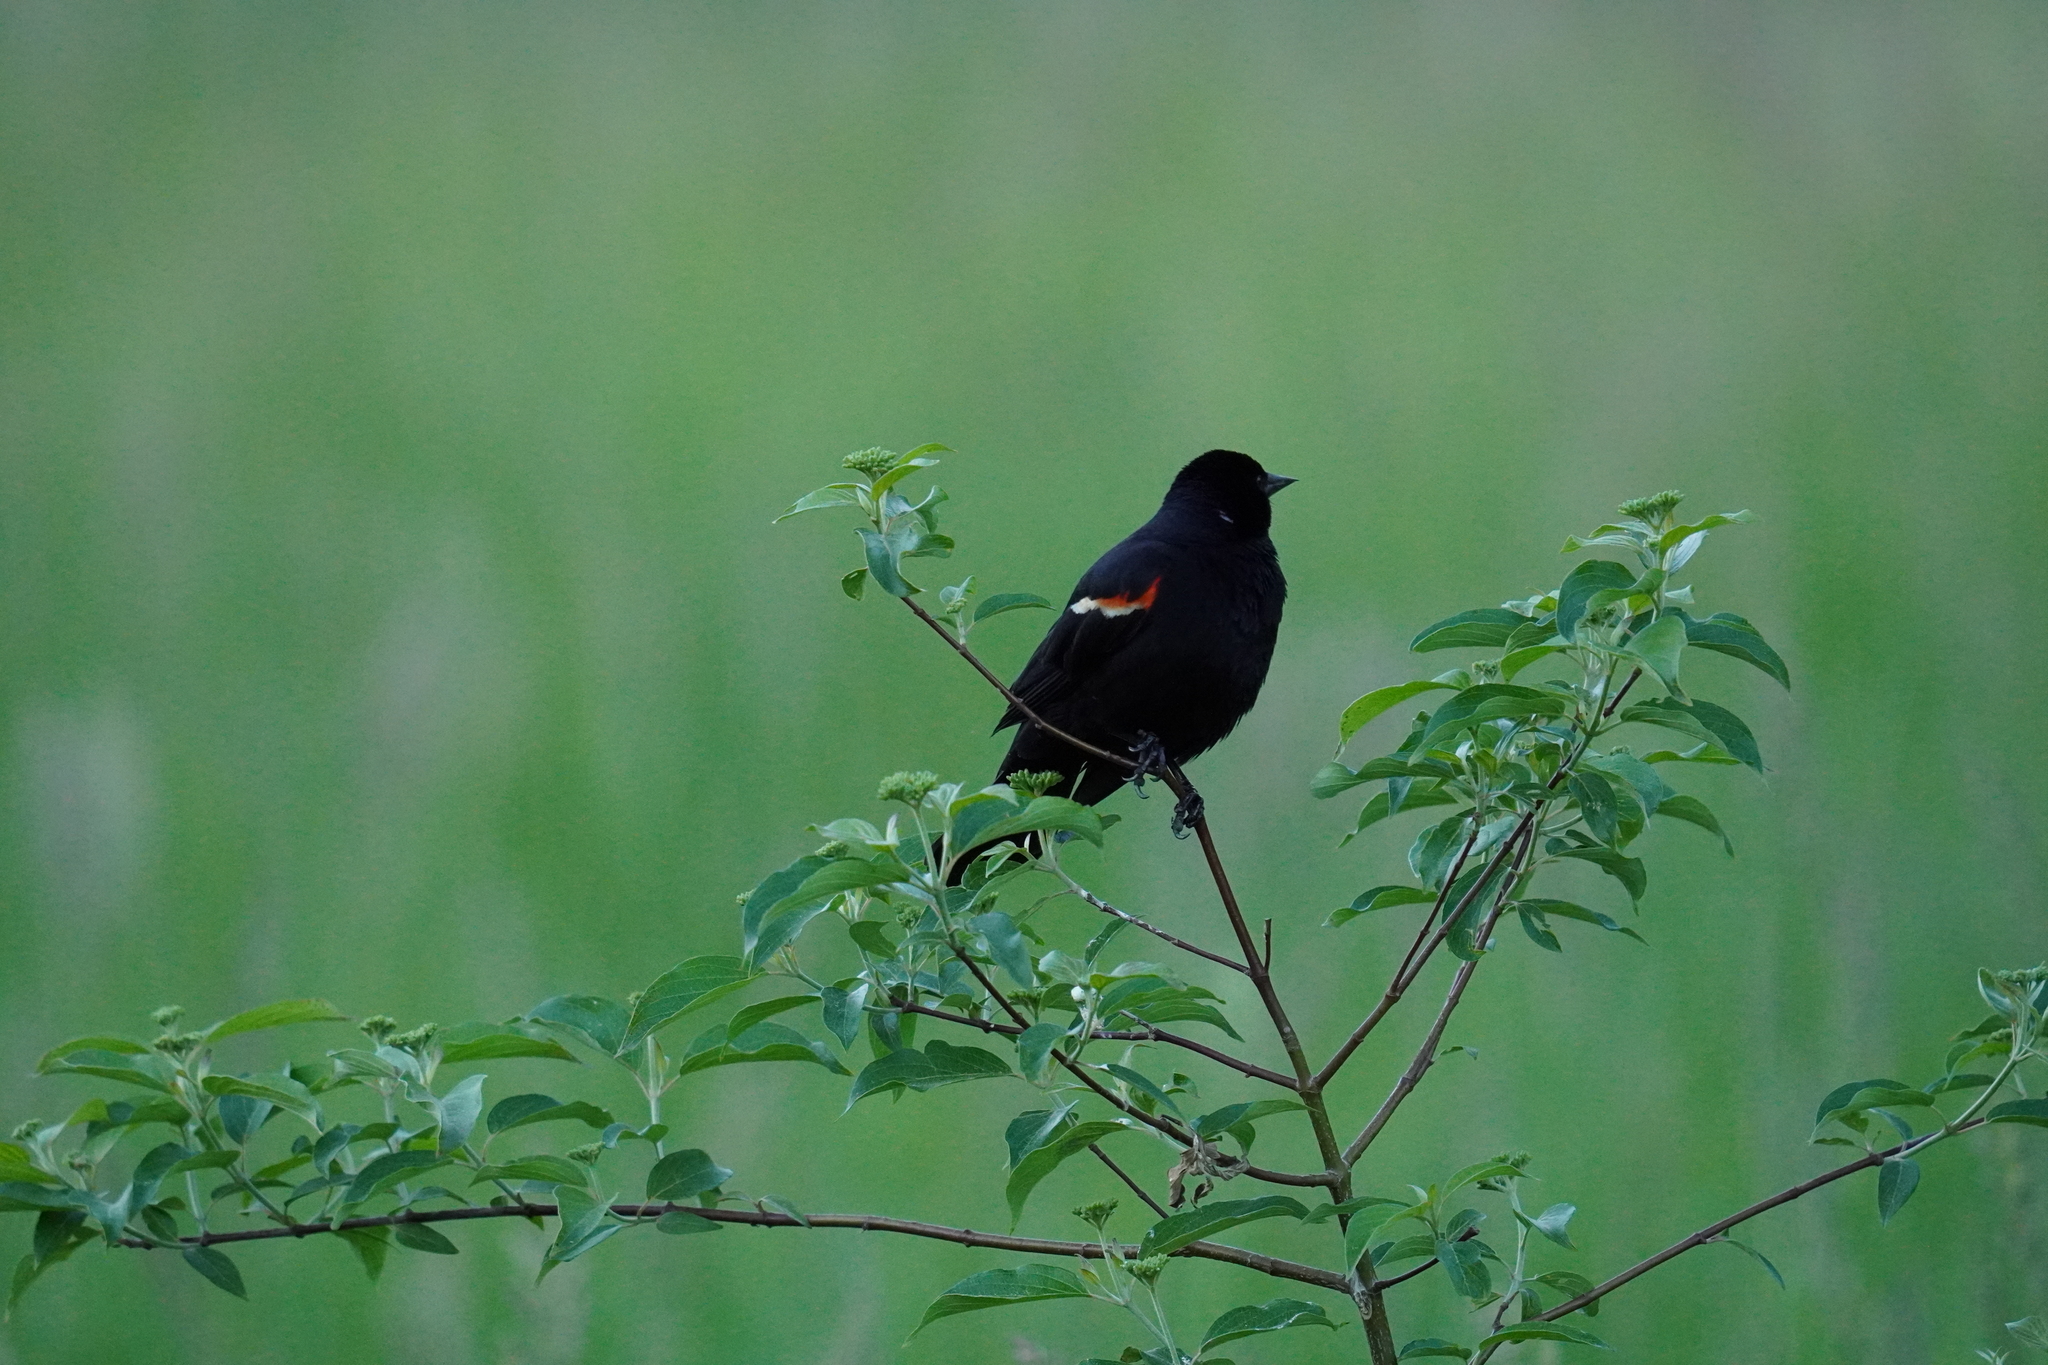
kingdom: Animalia
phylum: Chordata
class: Aves
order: Passeriformes
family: Icteridae
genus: Agelaius
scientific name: Agelaius phoeniceus
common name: Red-winged blackbird
